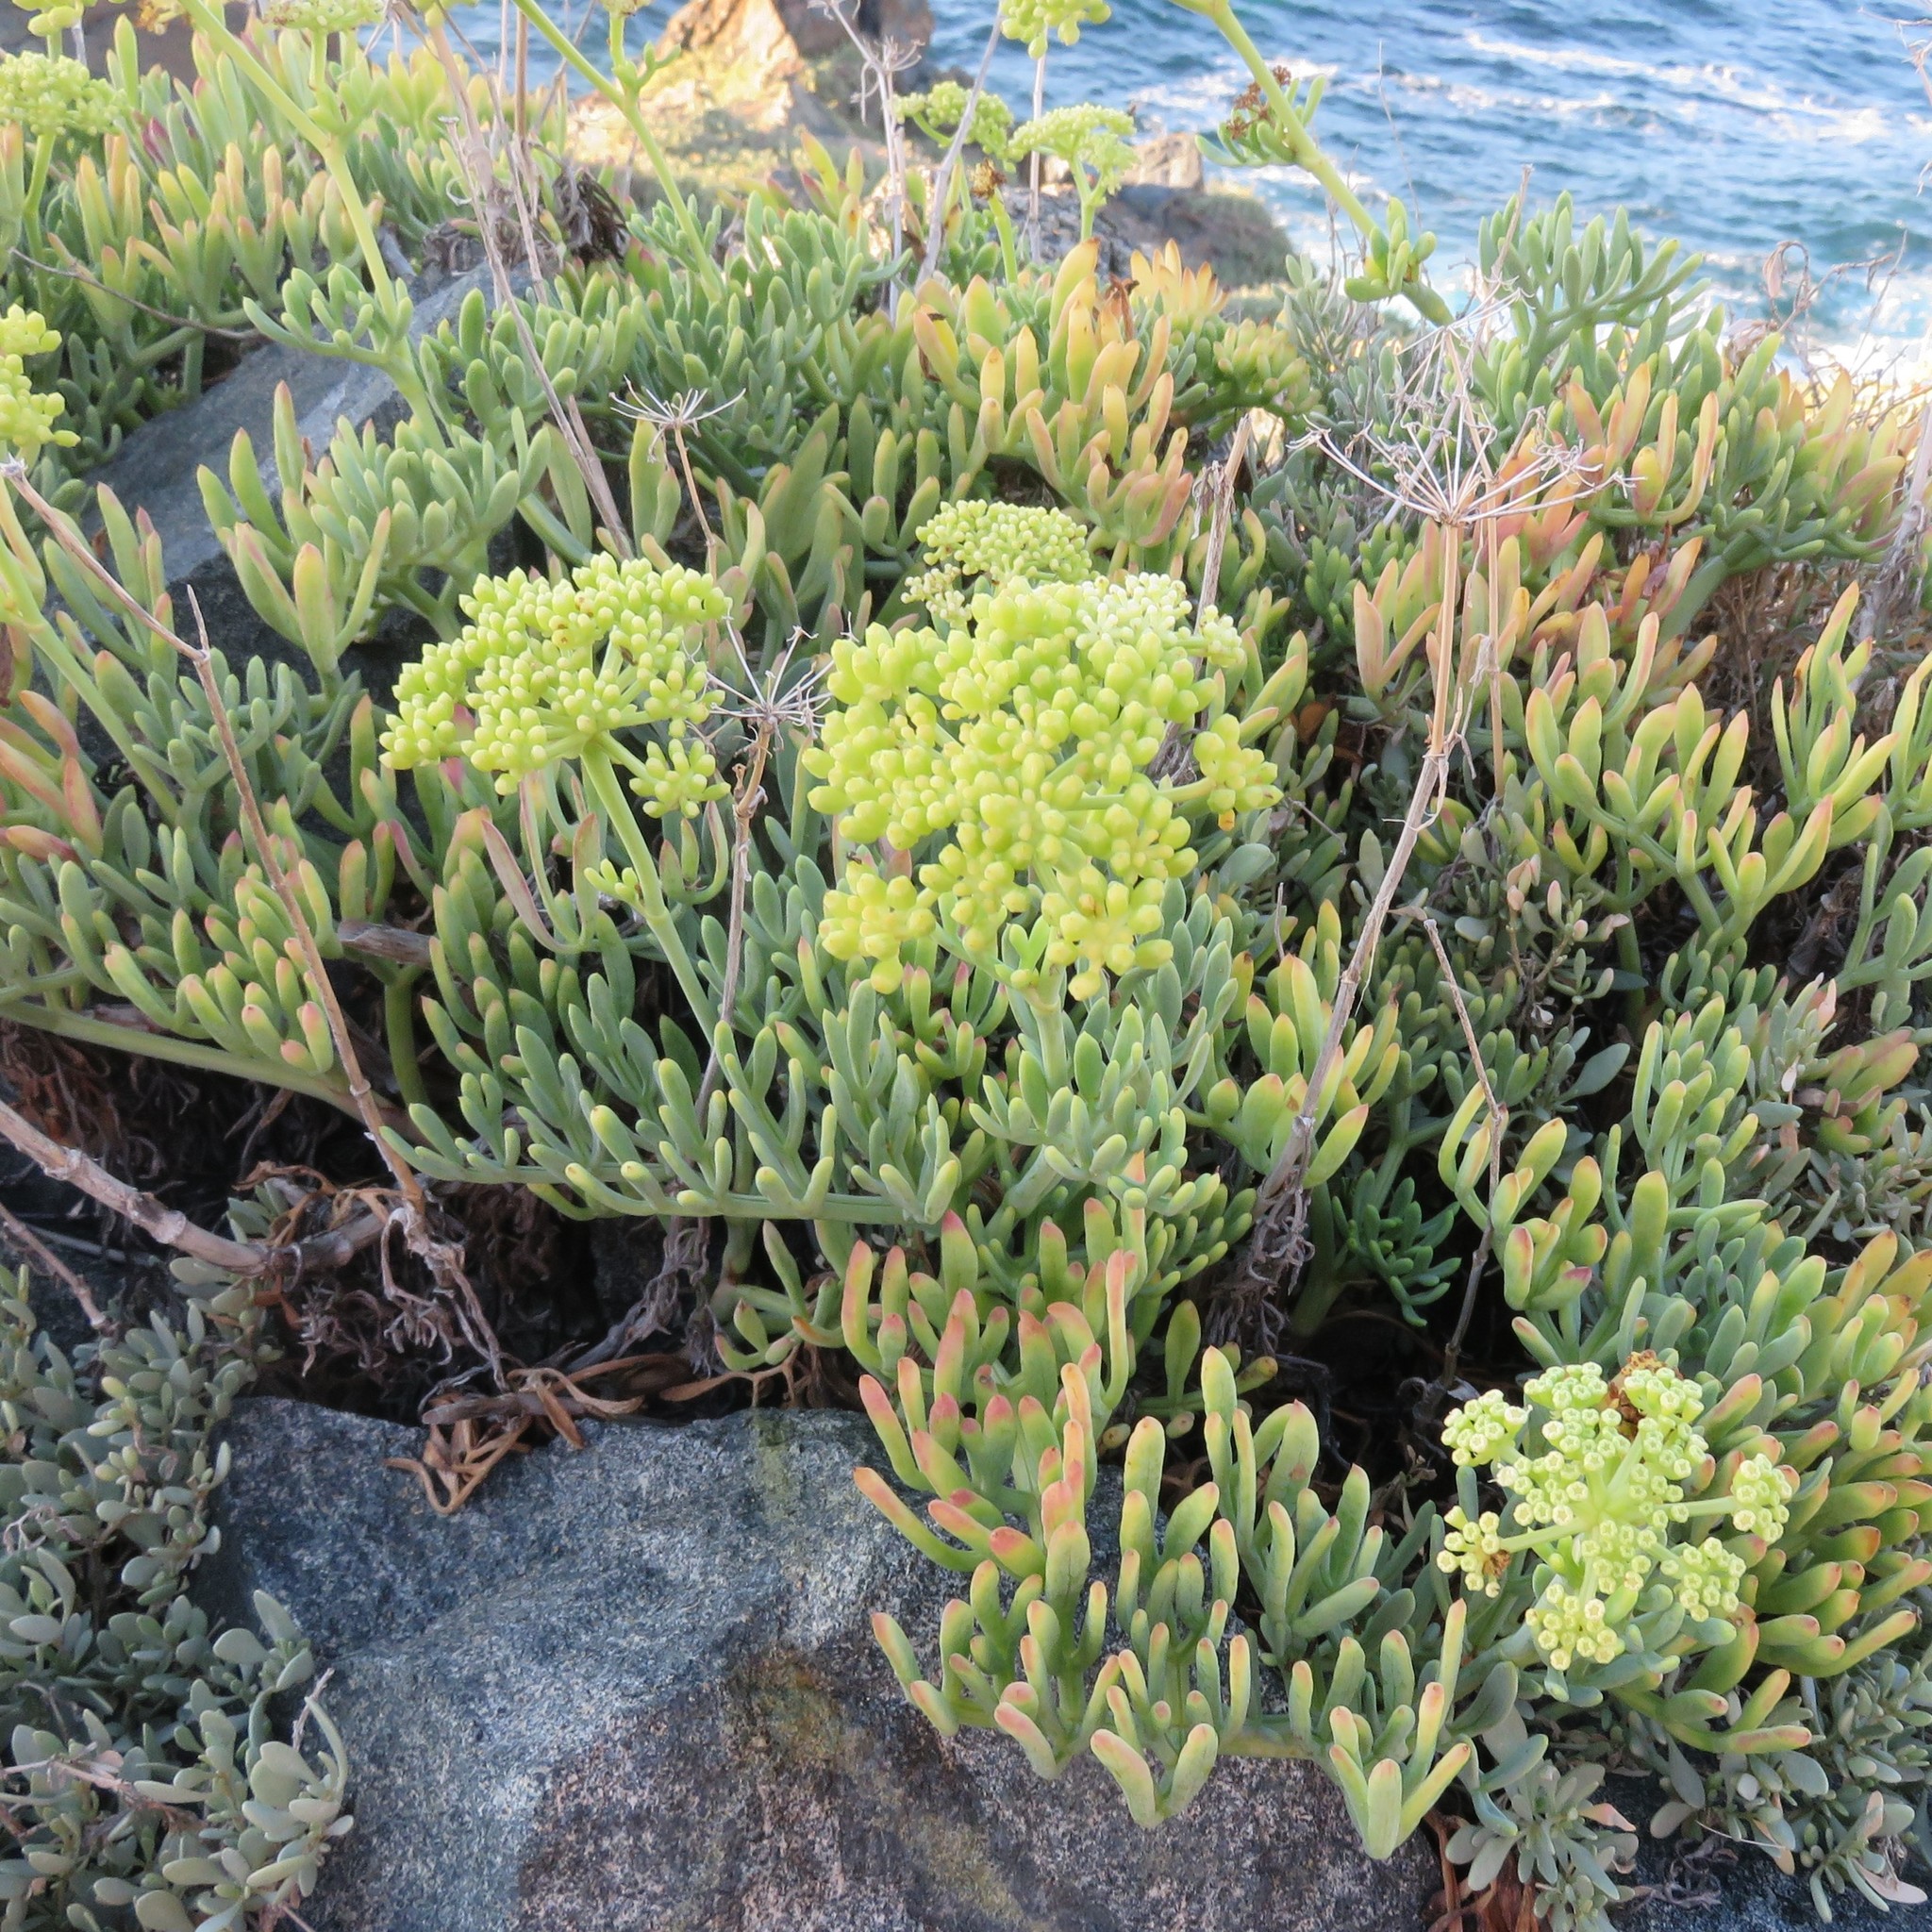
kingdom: Plantae
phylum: Tracheophyta
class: Magnoliopsida
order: Apiales
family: Apiaceae
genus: Crithmum
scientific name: Crithmum maritimum
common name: Rock samphire
